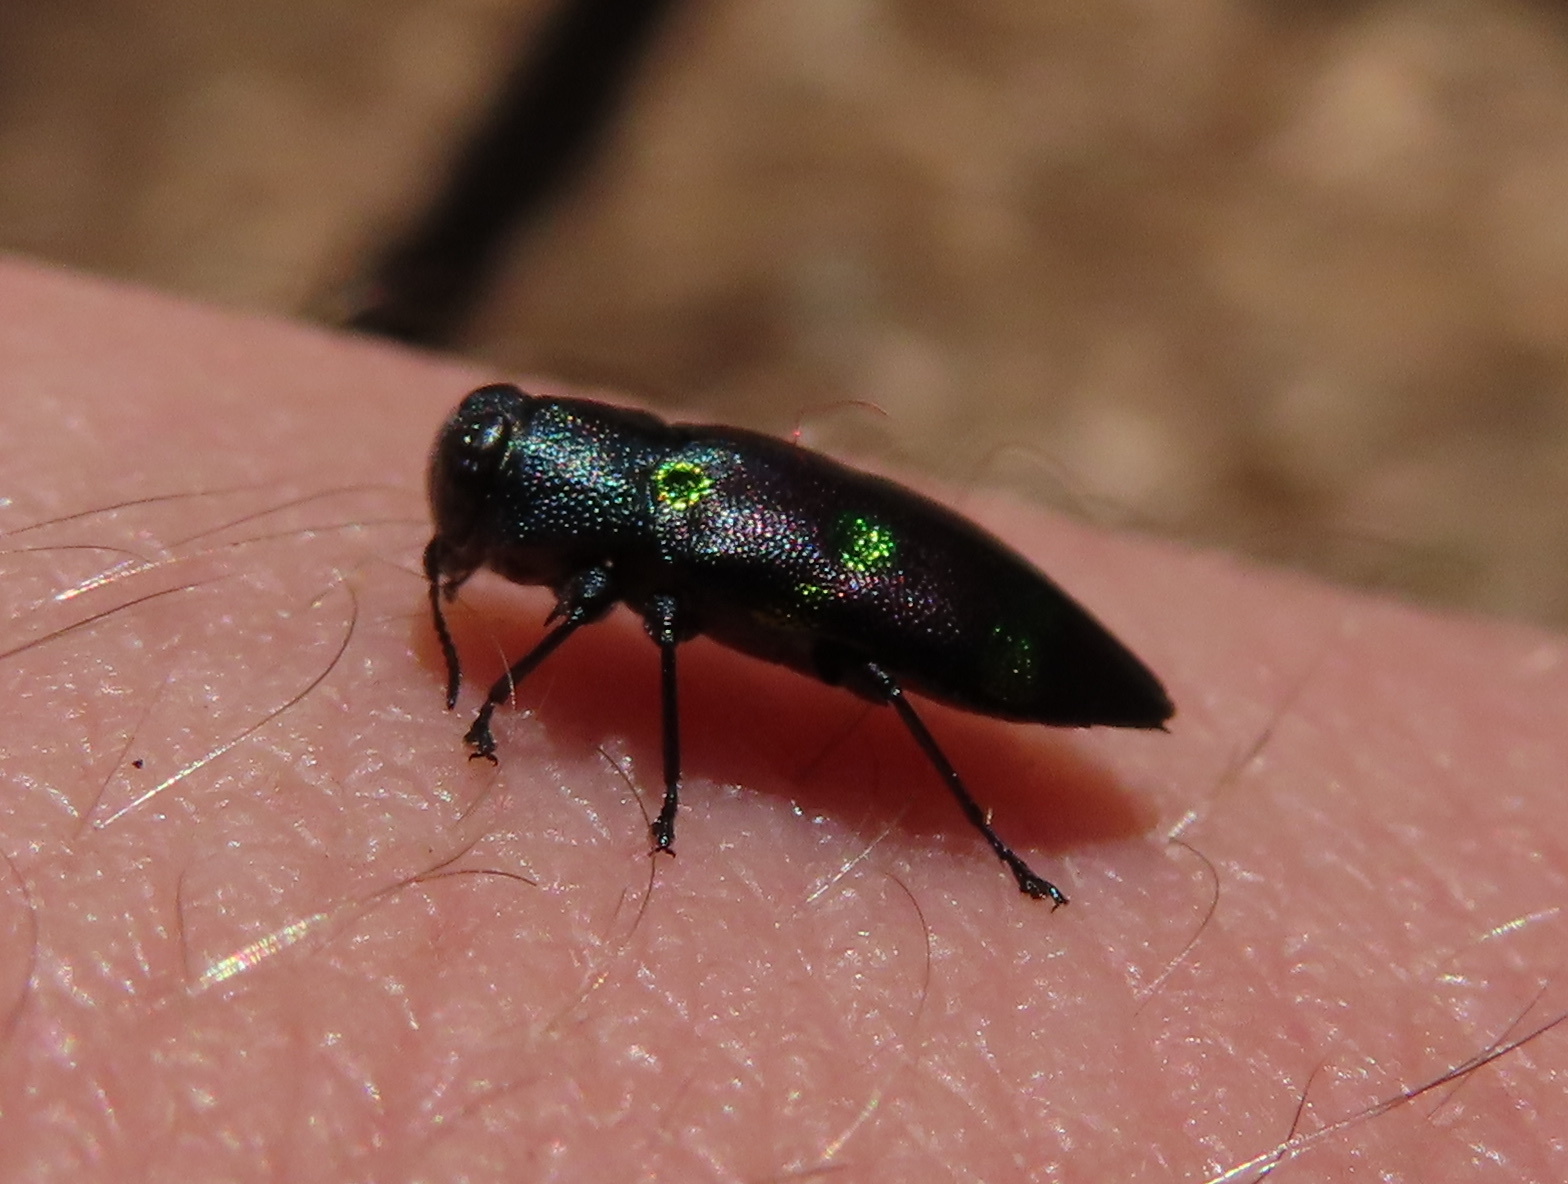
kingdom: Animalia
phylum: Arthropoda
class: Insecta
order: Coleoptera
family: Buprestidae
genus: Chrysobothris
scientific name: Chrysobothris chrysoela
